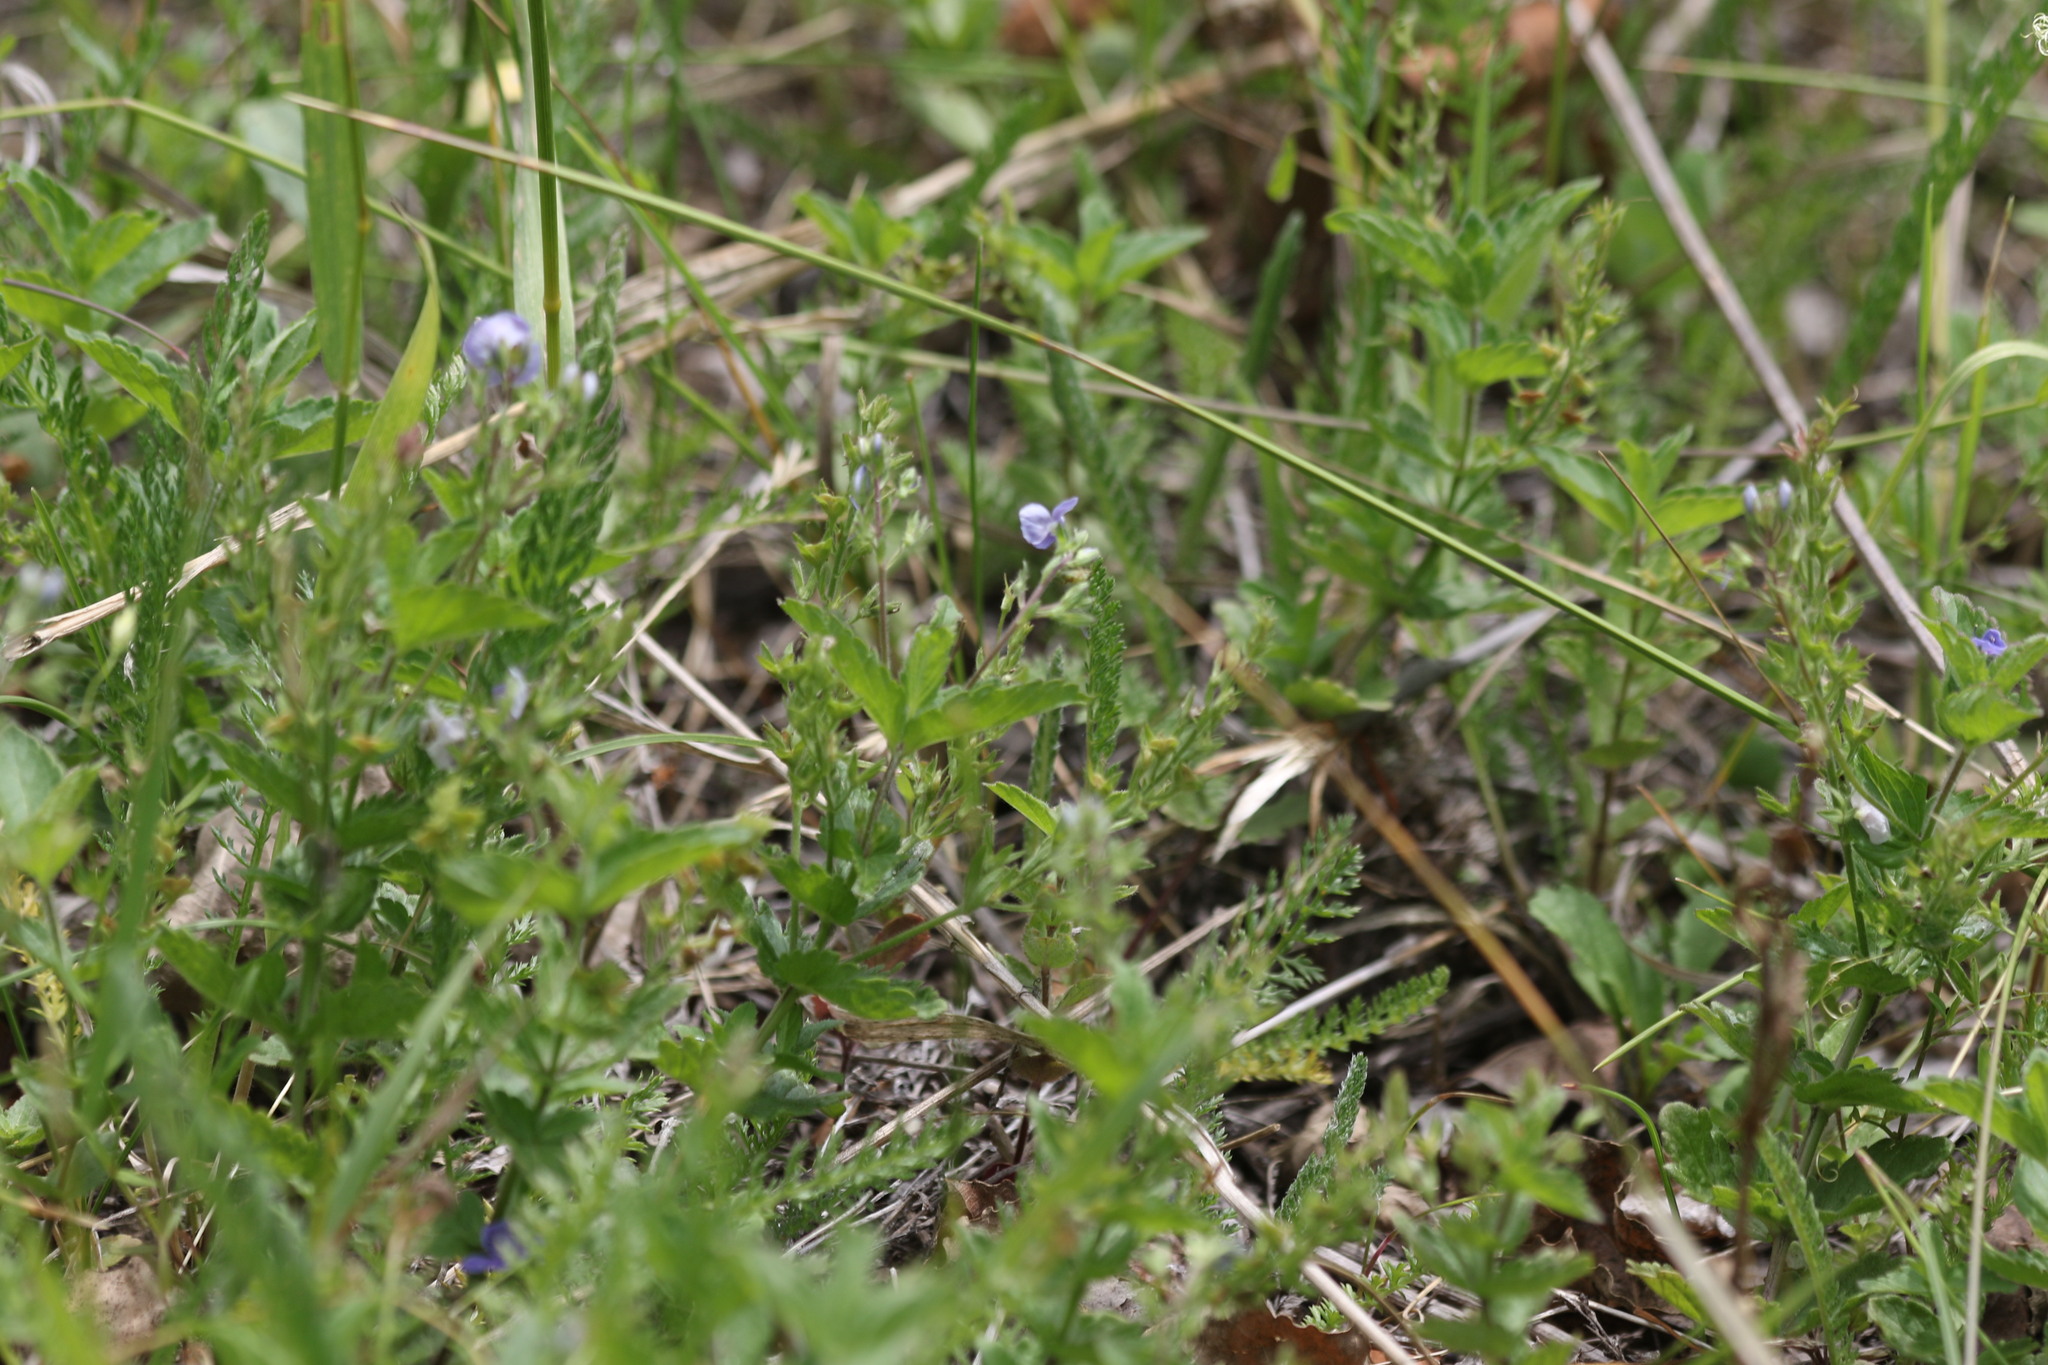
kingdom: Plantae
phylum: Tracheophyta
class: Magnoliopsida
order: Lamiales
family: Plantaginaceae
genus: Veronica
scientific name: Veronica chamaedrys
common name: Germander speedwell
